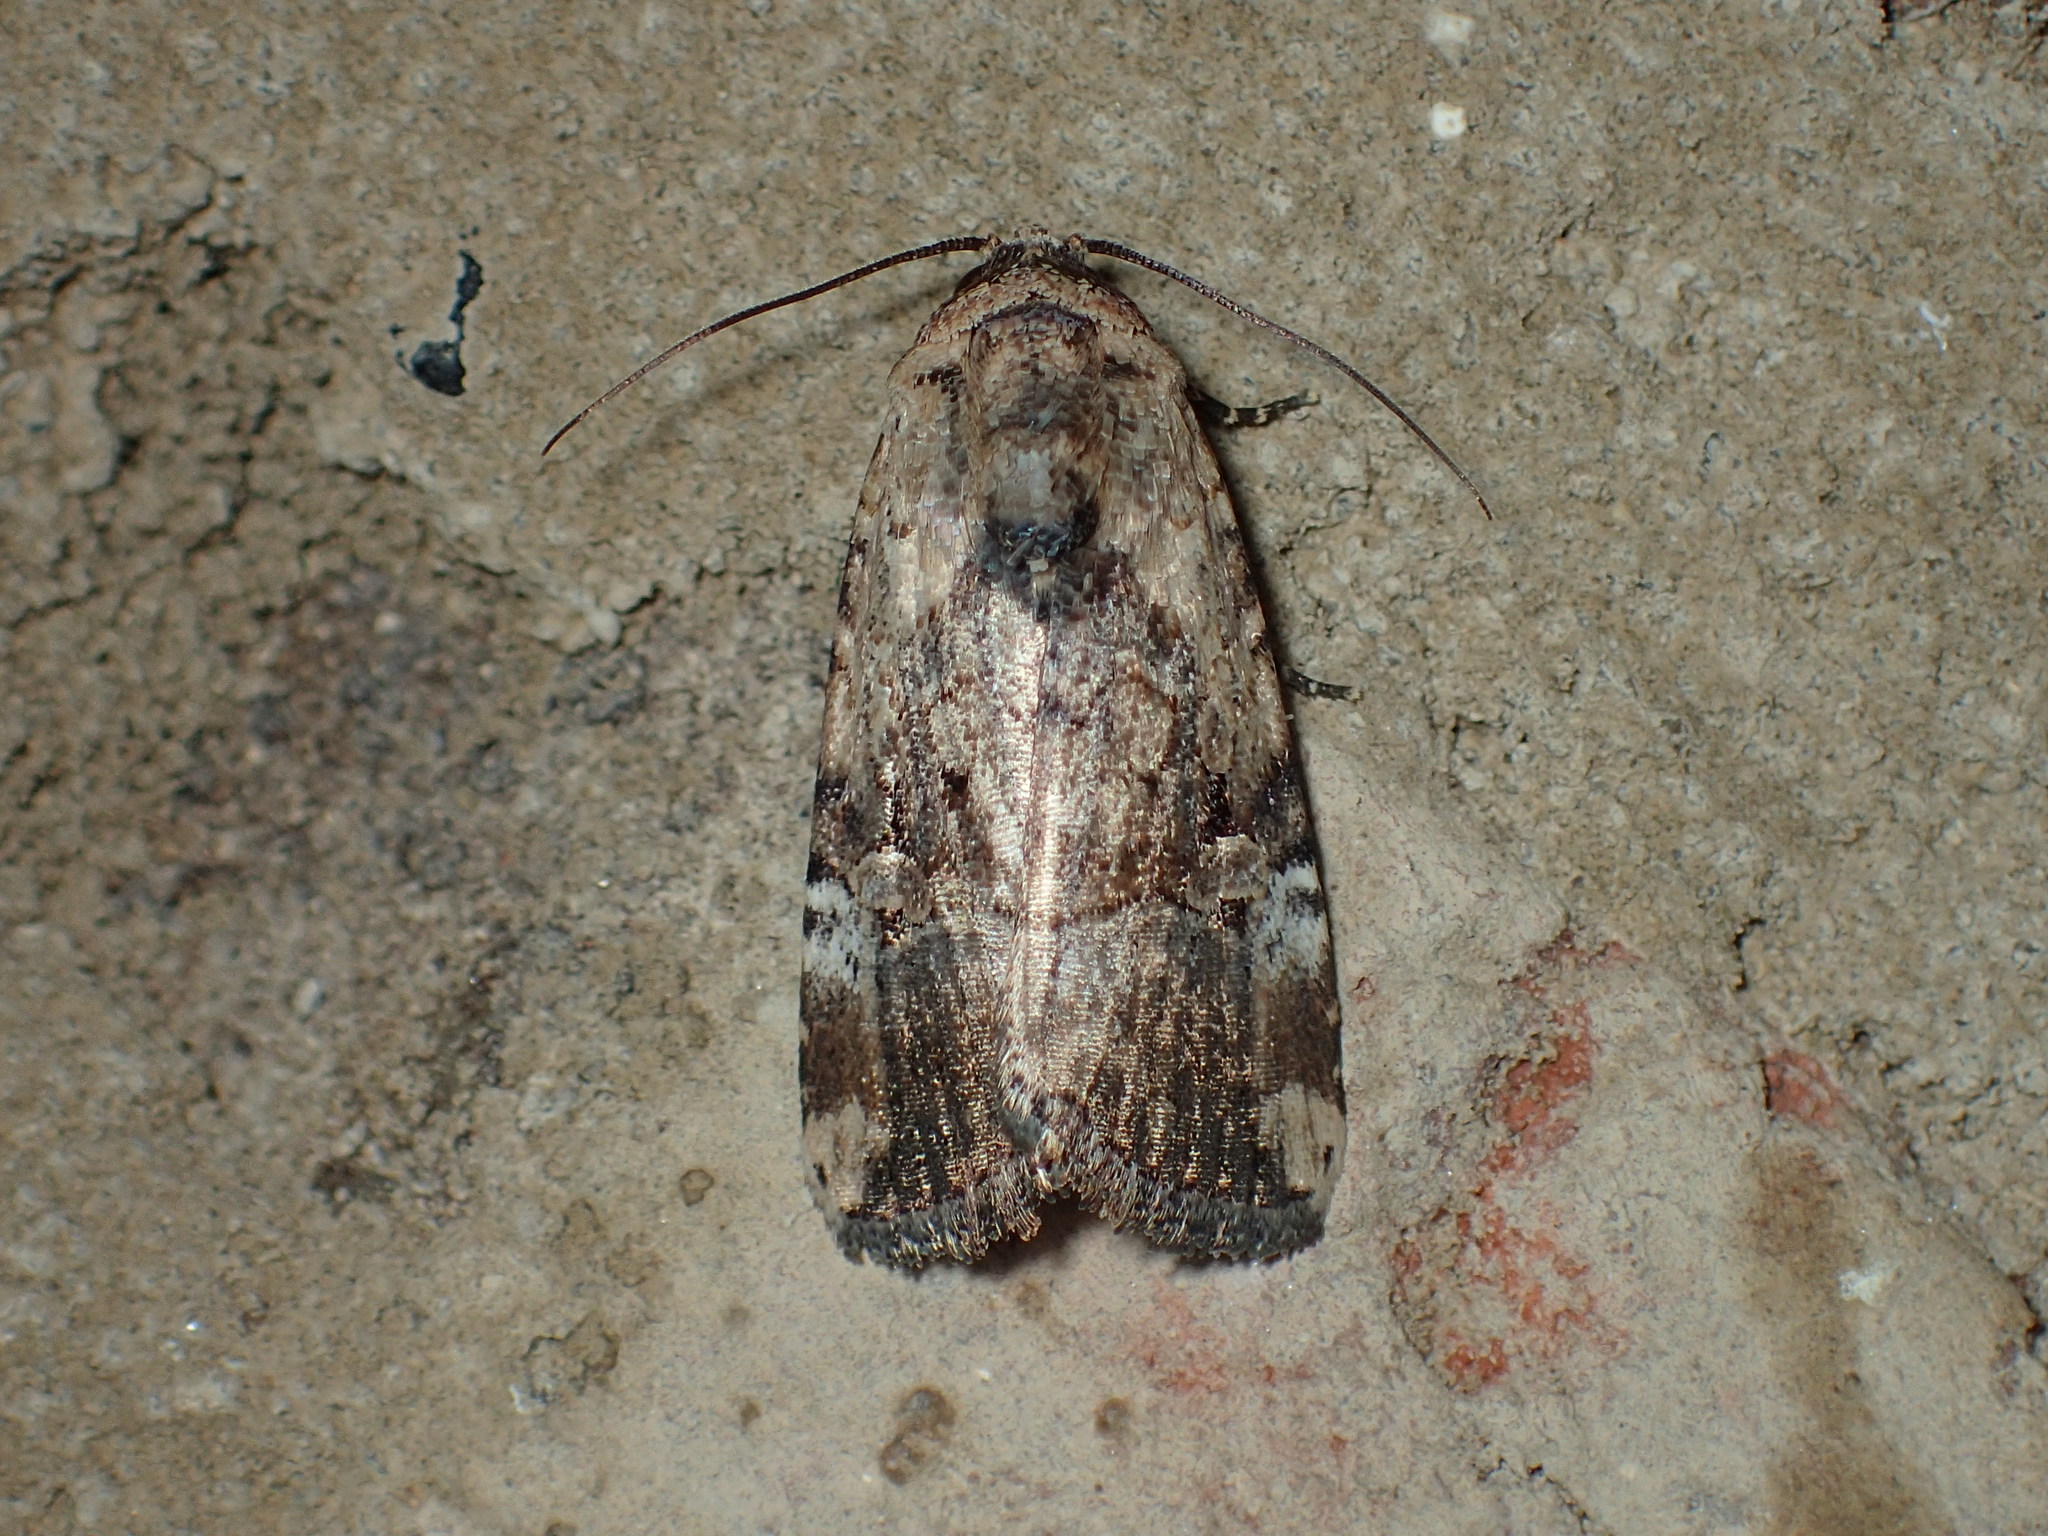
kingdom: Animalia
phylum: Arthropoda
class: Insecta
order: Lepidoptera
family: Noctuidae
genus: Elaphria
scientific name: Elaphria chalcedonia
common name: Chalcedony midget
